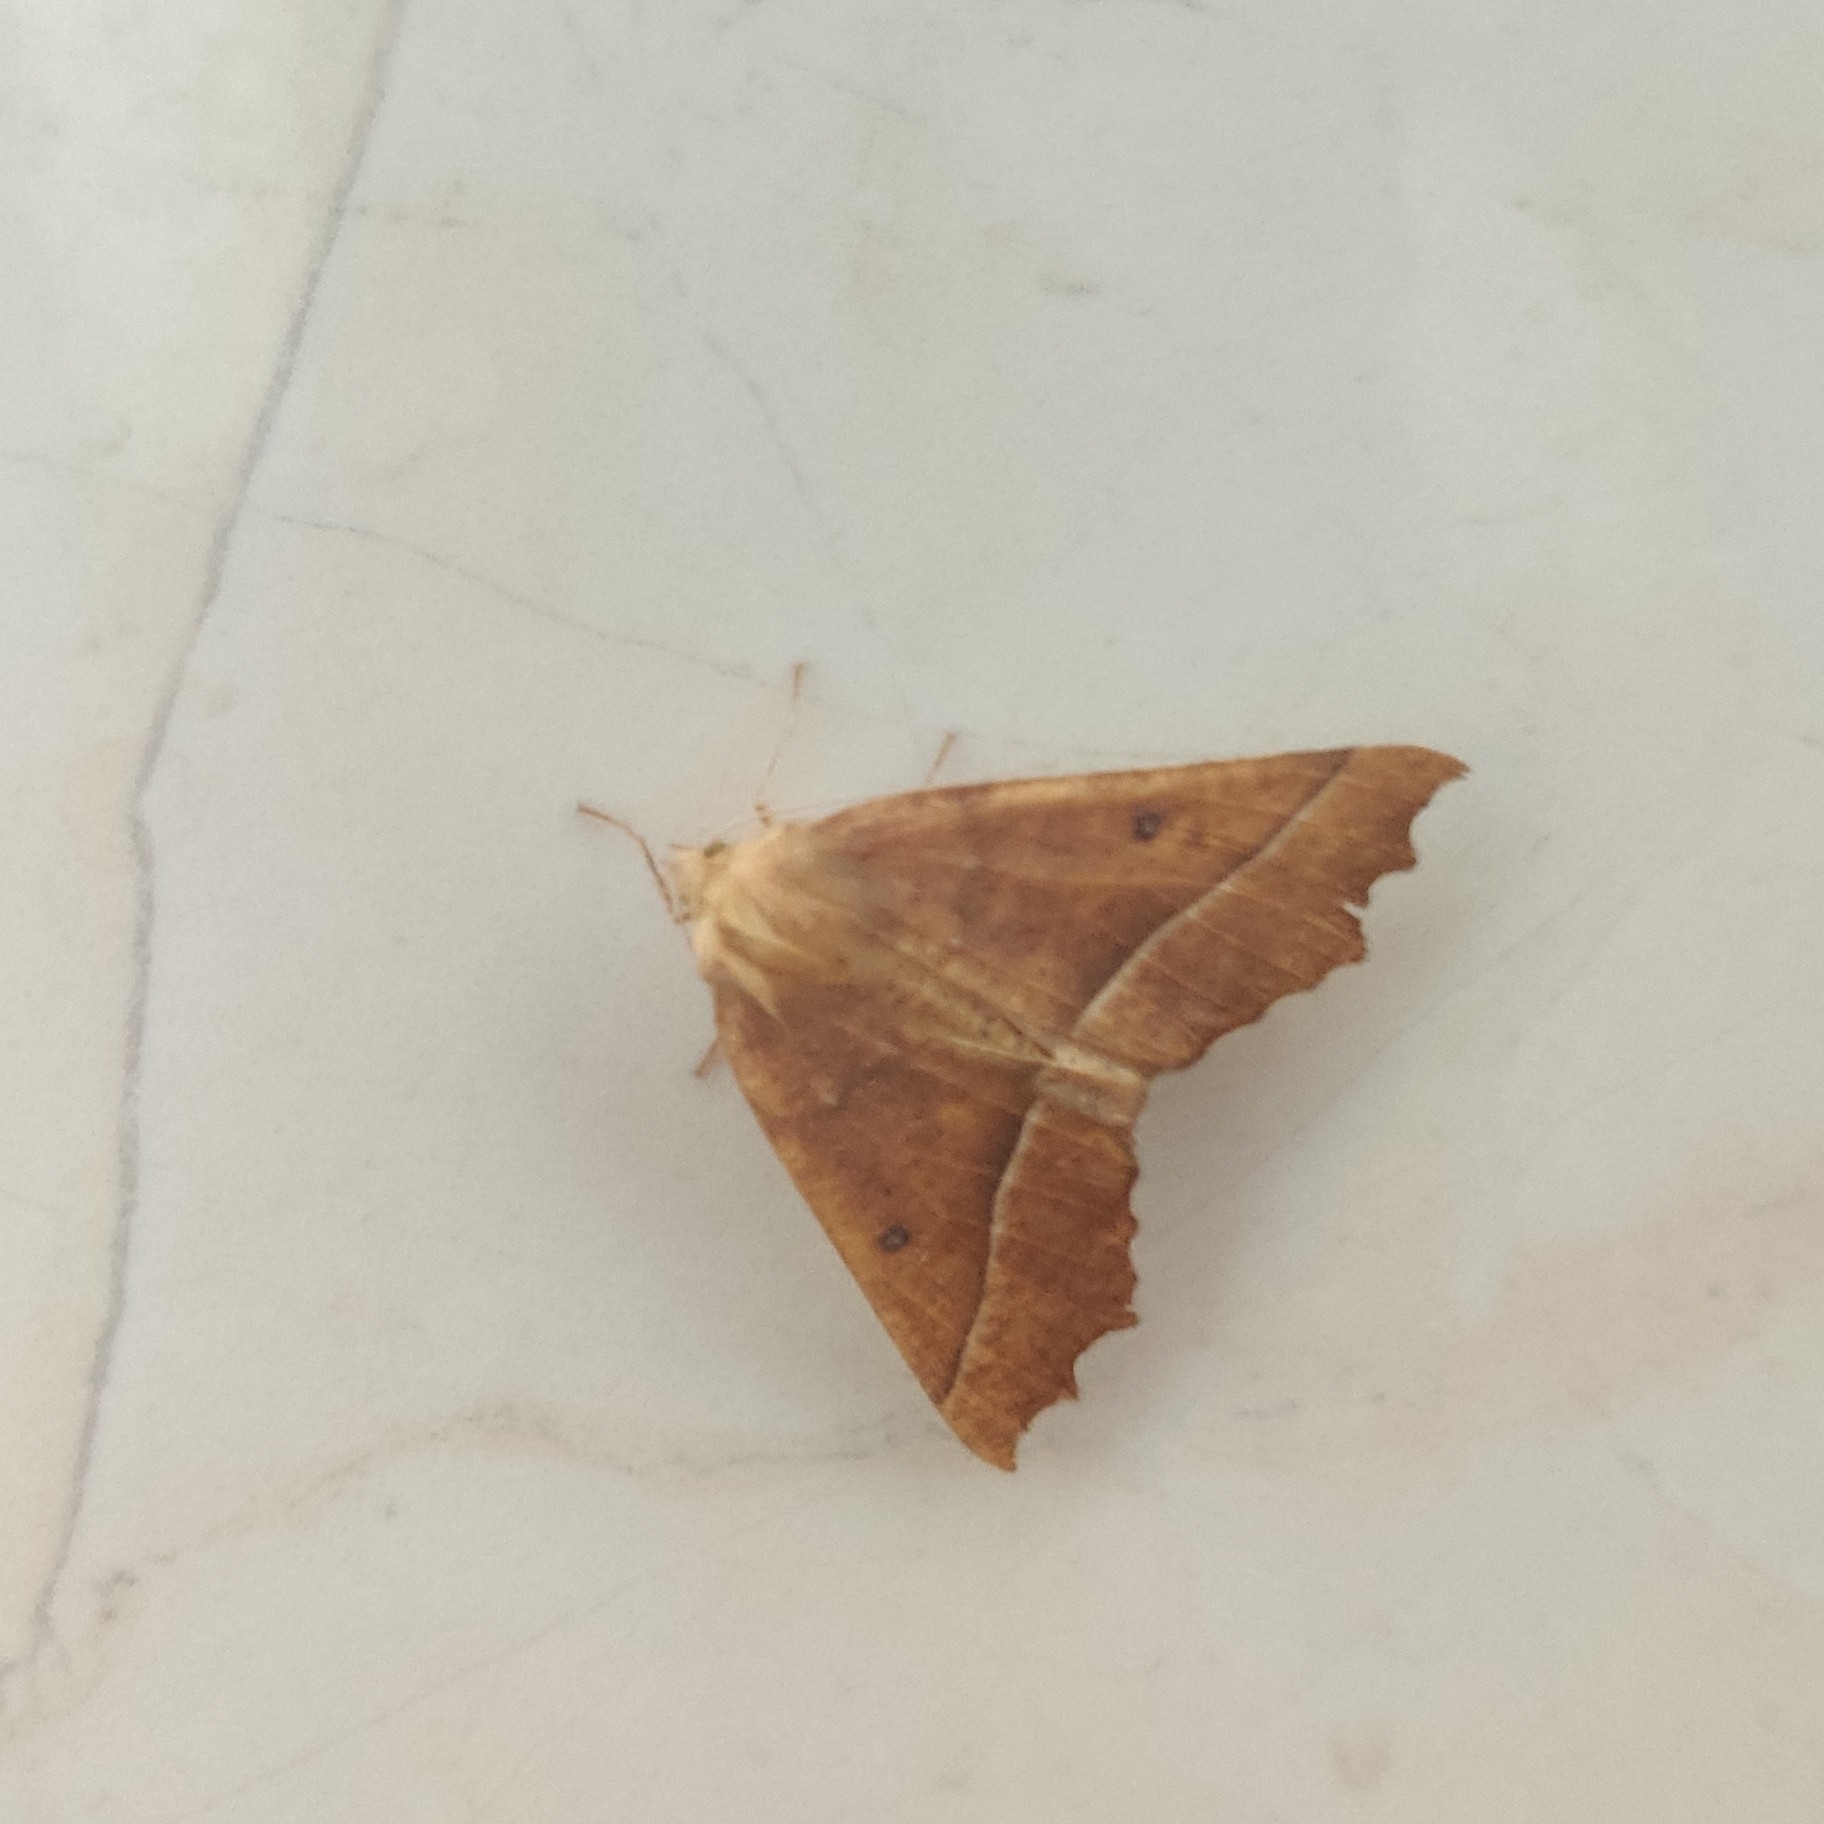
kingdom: Animalia
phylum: Arthropoda
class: Insecta
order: Lepidoptera
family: Geometridae
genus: Odontopera
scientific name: Odontopera bilinearia
